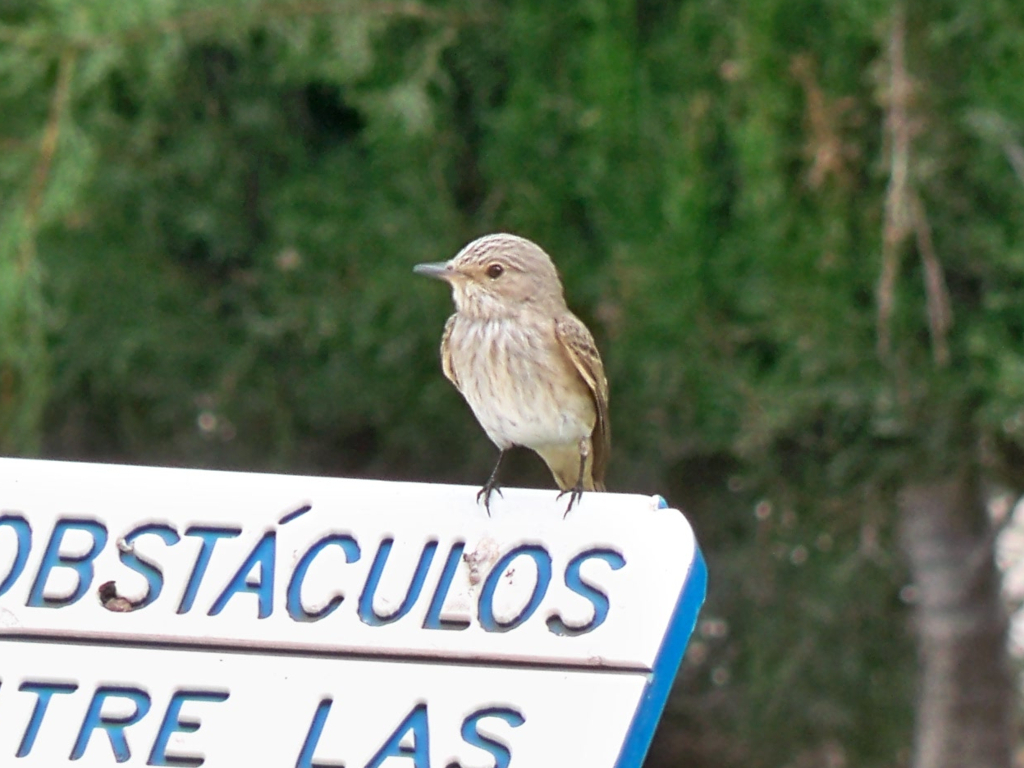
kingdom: Animalia
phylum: Chordata
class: Aves
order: Passeriformes
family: Muscicapidae
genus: Muscicapa
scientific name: Muscicapa striata
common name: Spotted flycatcher
